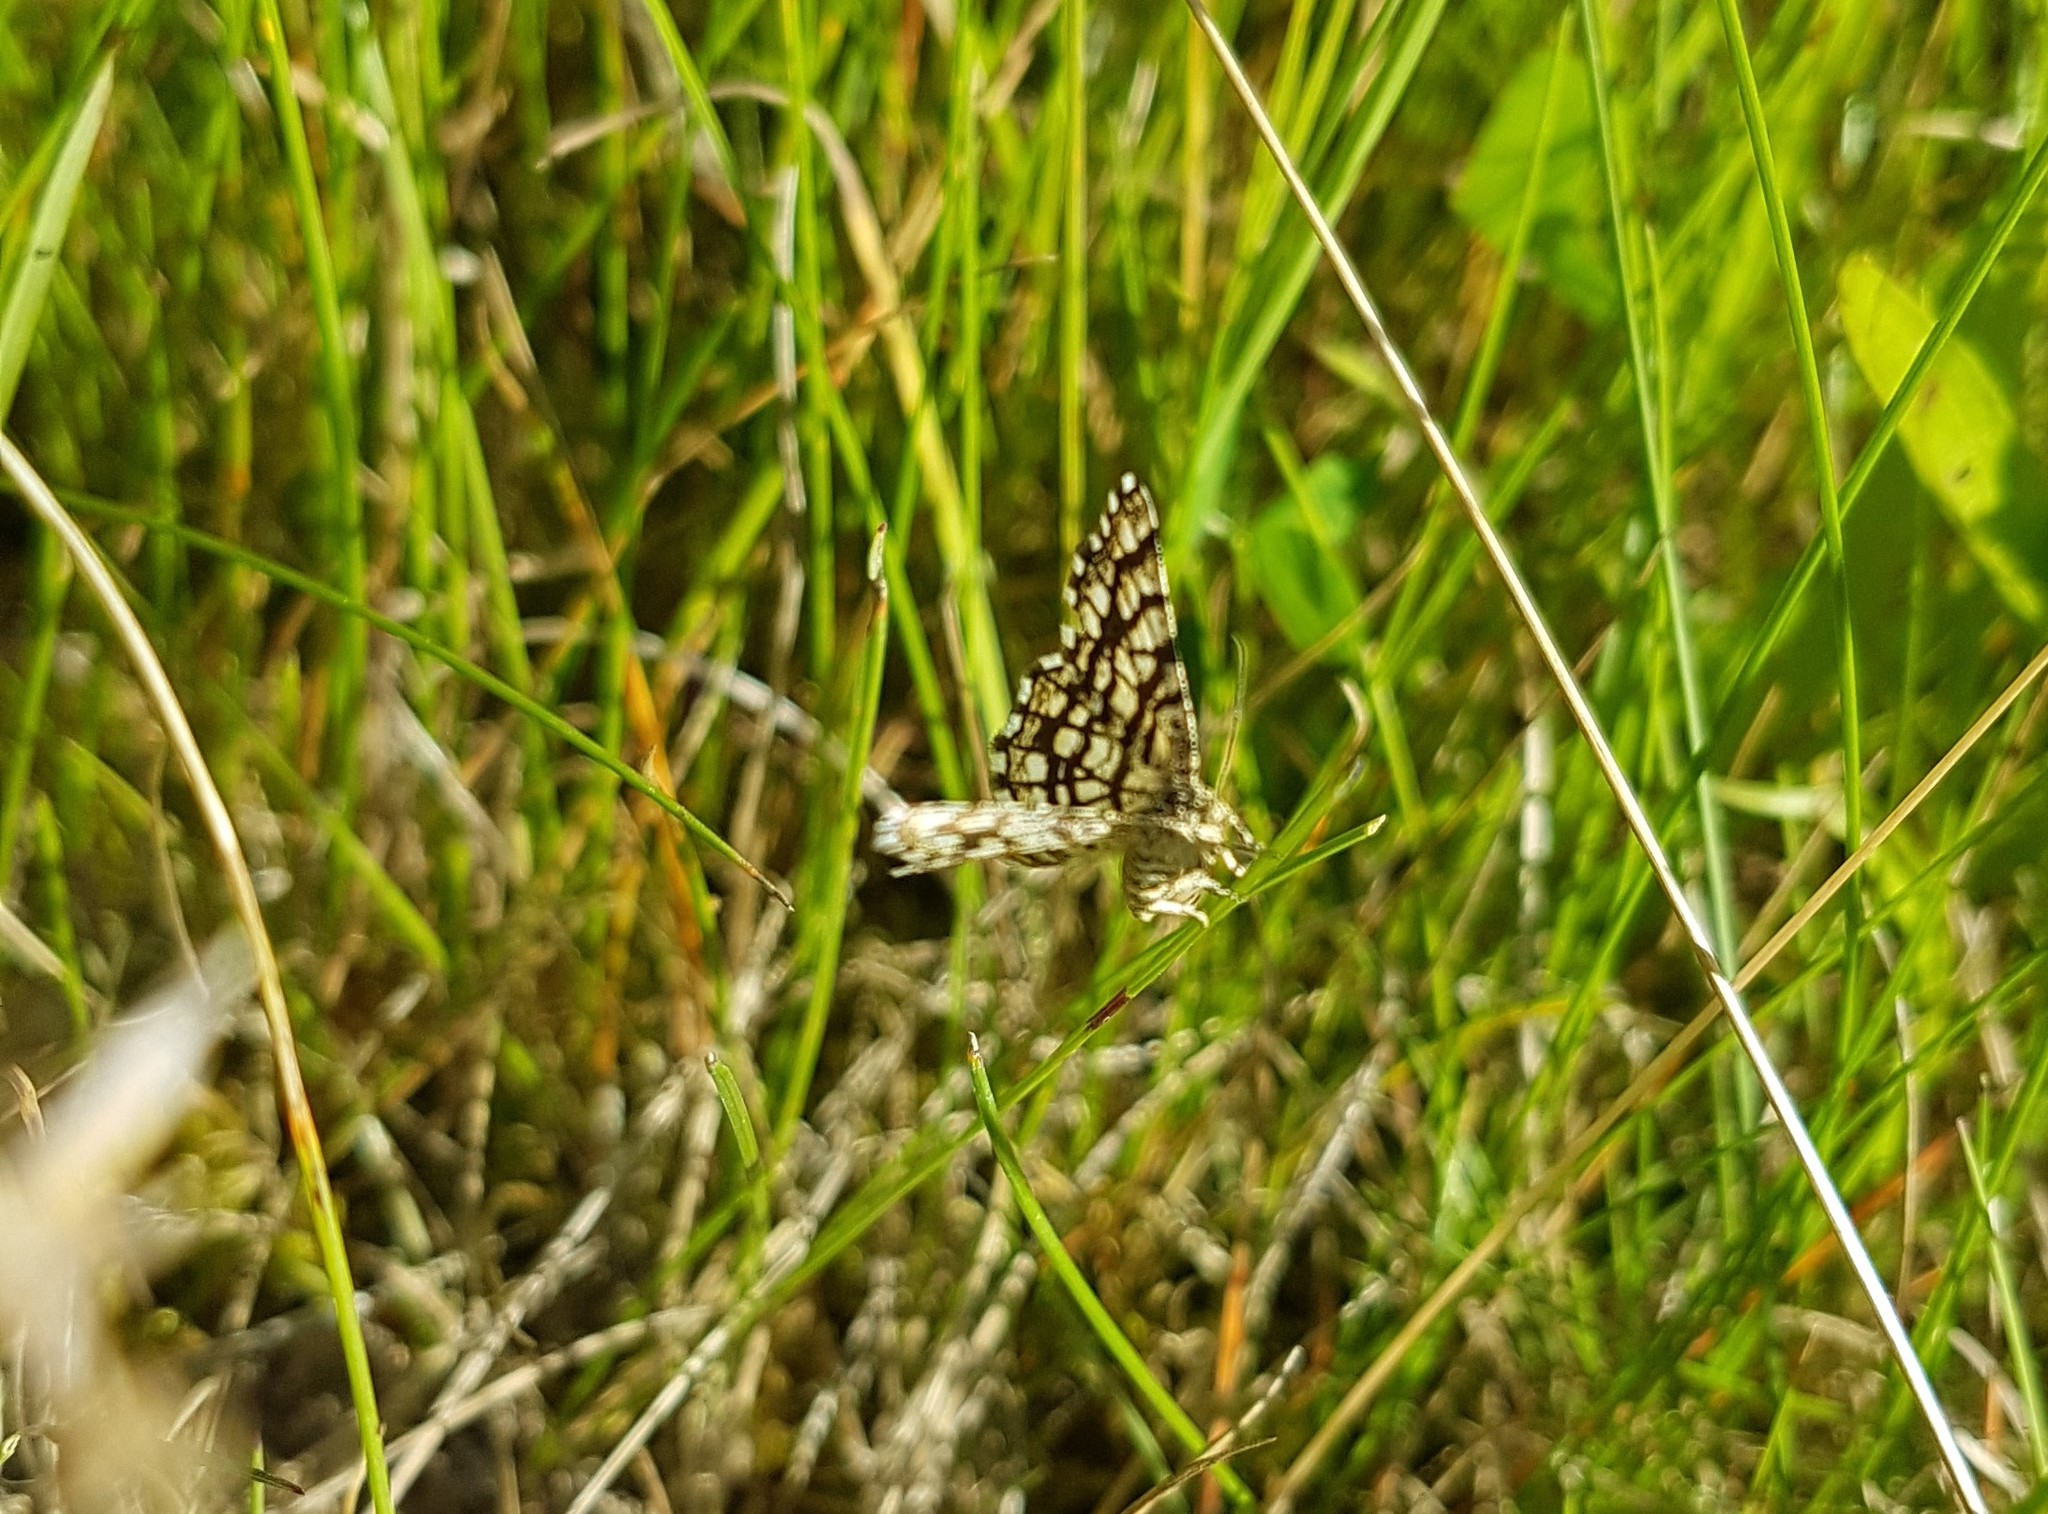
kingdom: Animalia
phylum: Arthropoda
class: Insecta
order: Lepidoptera
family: Geometridae
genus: Chiasmia
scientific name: Chiasmia clathrata
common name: Latticed heath
